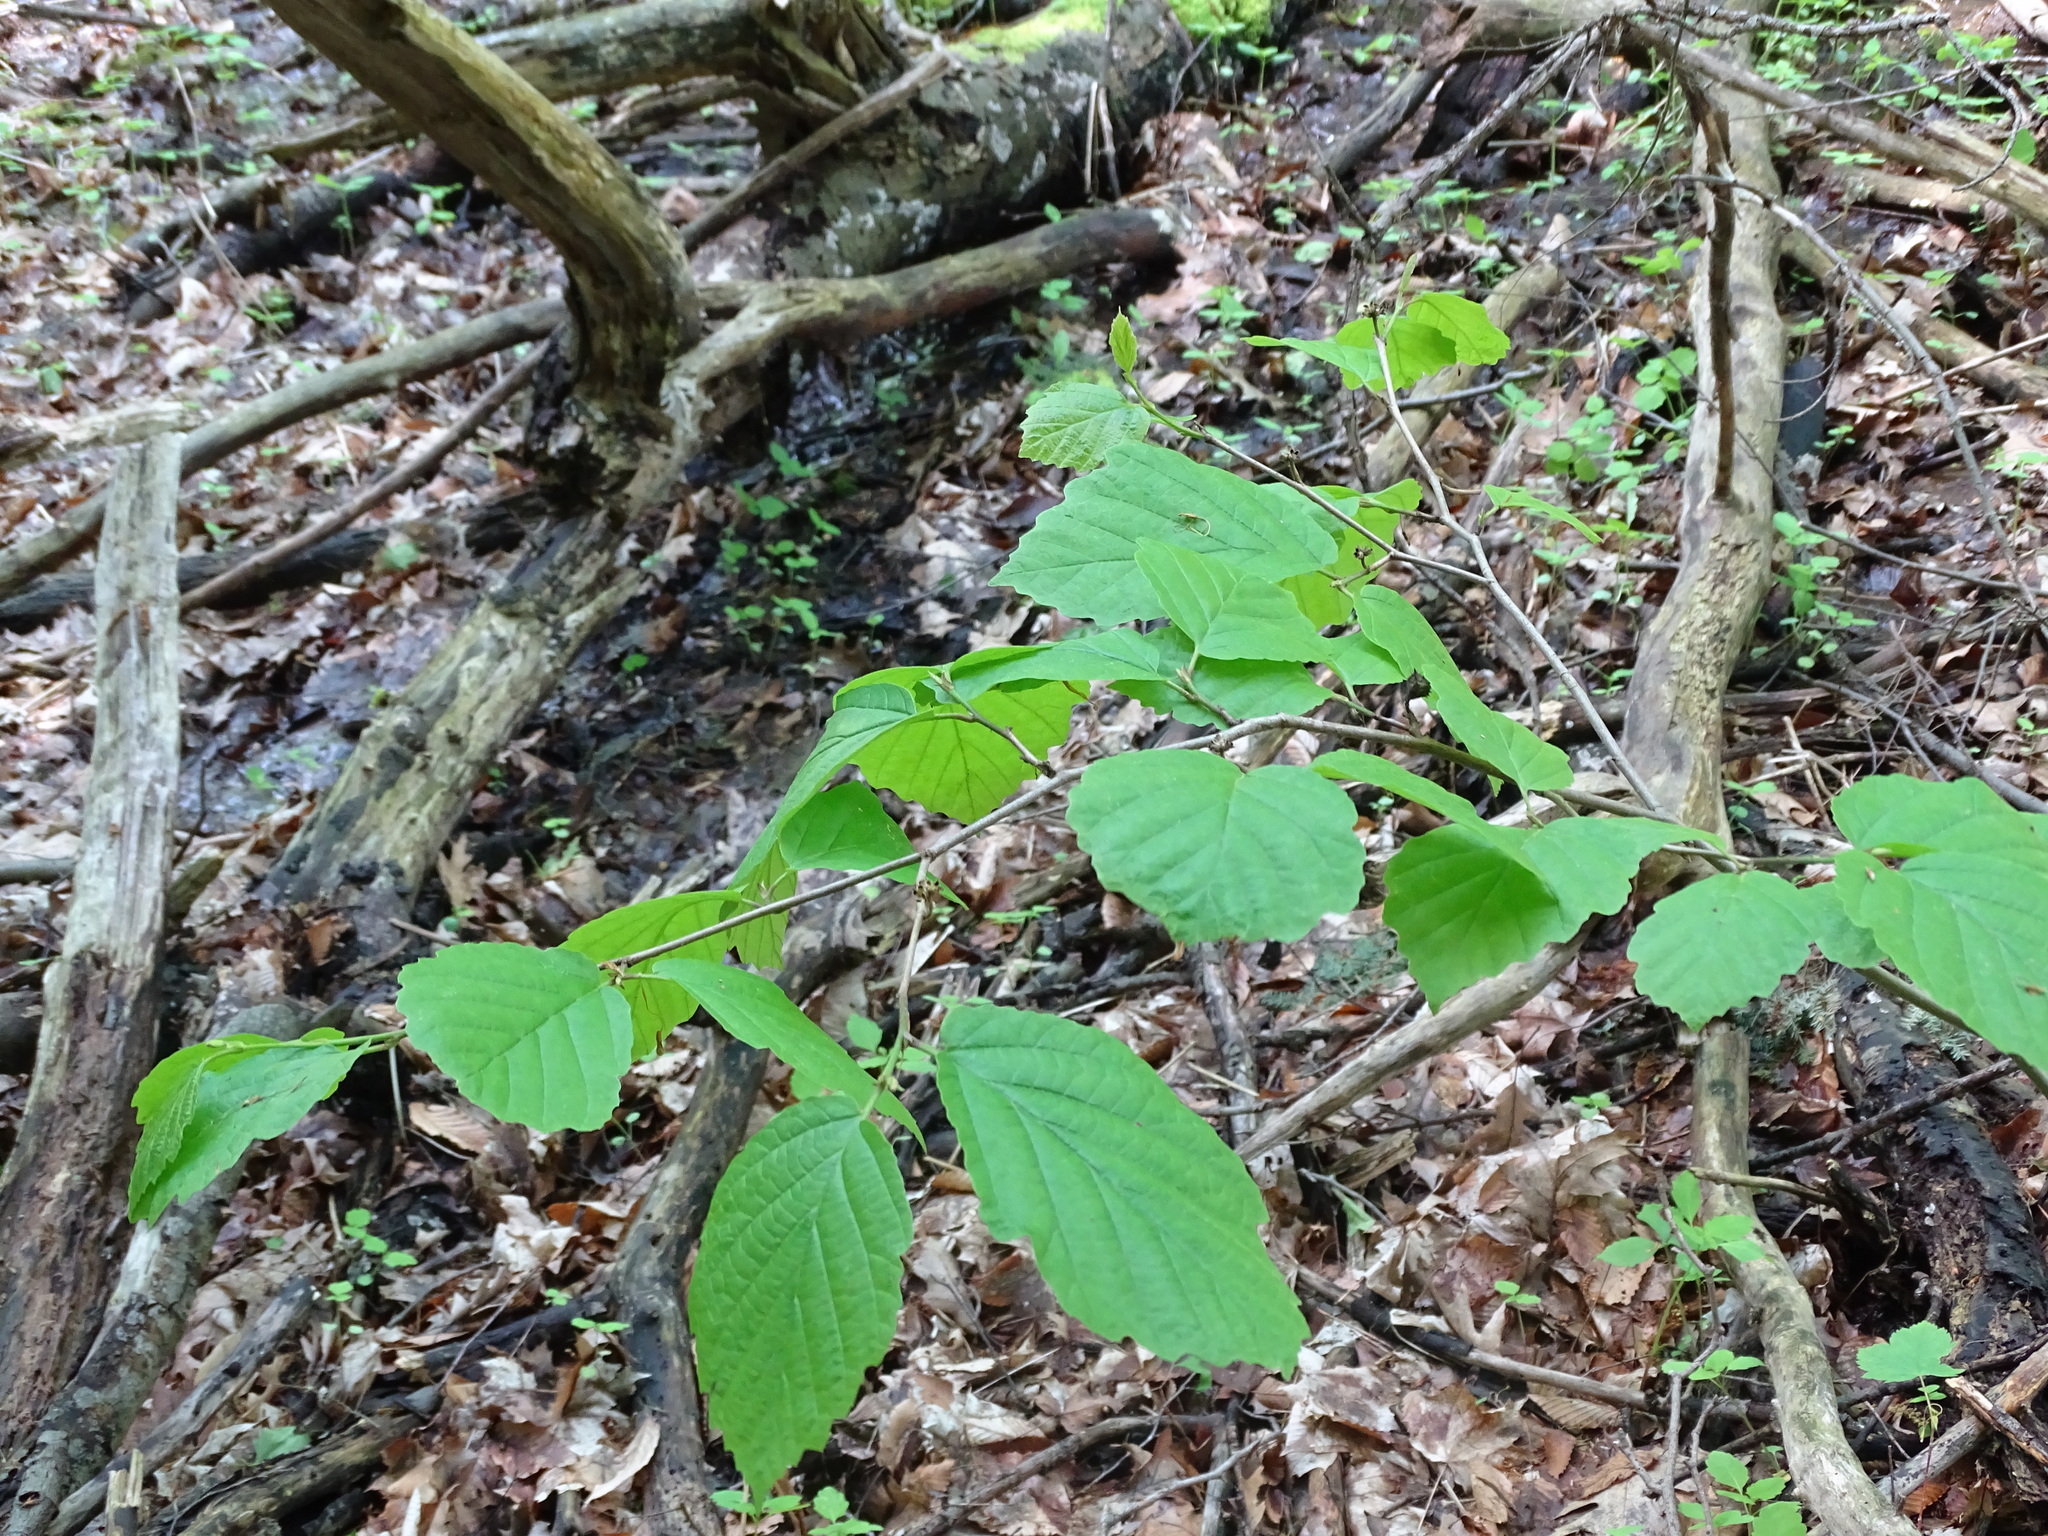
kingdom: Plantae
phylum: Tracheophyta
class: Magnoliopsida
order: Saxifragales
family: Hamamelidaceae
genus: Hamamelis
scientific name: Hamamelis virginiana
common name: Witch-hazel
